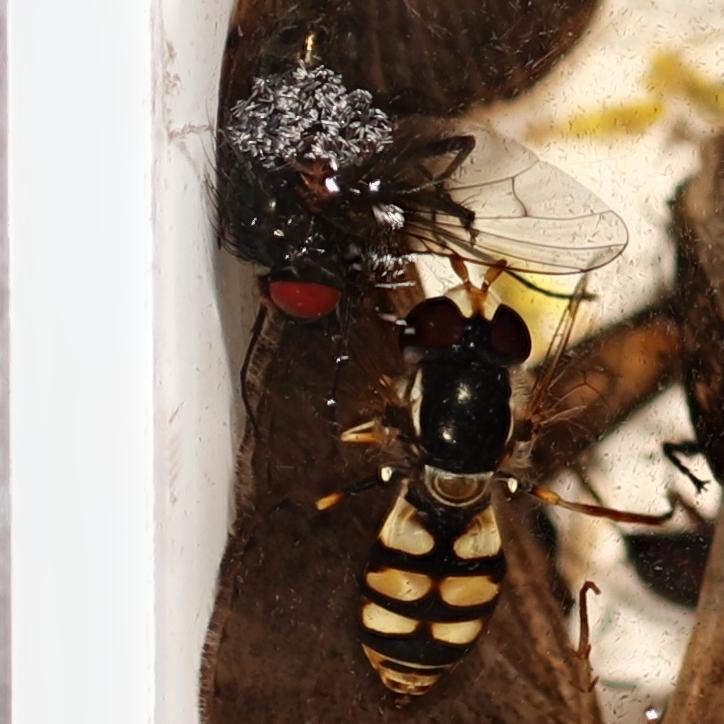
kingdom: Animalia
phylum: Arthropoda
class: Insecta
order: Diptera
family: Syrphidae
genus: Simosyrphus
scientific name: Simosyrphus grandicornis
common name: Hoverfly
